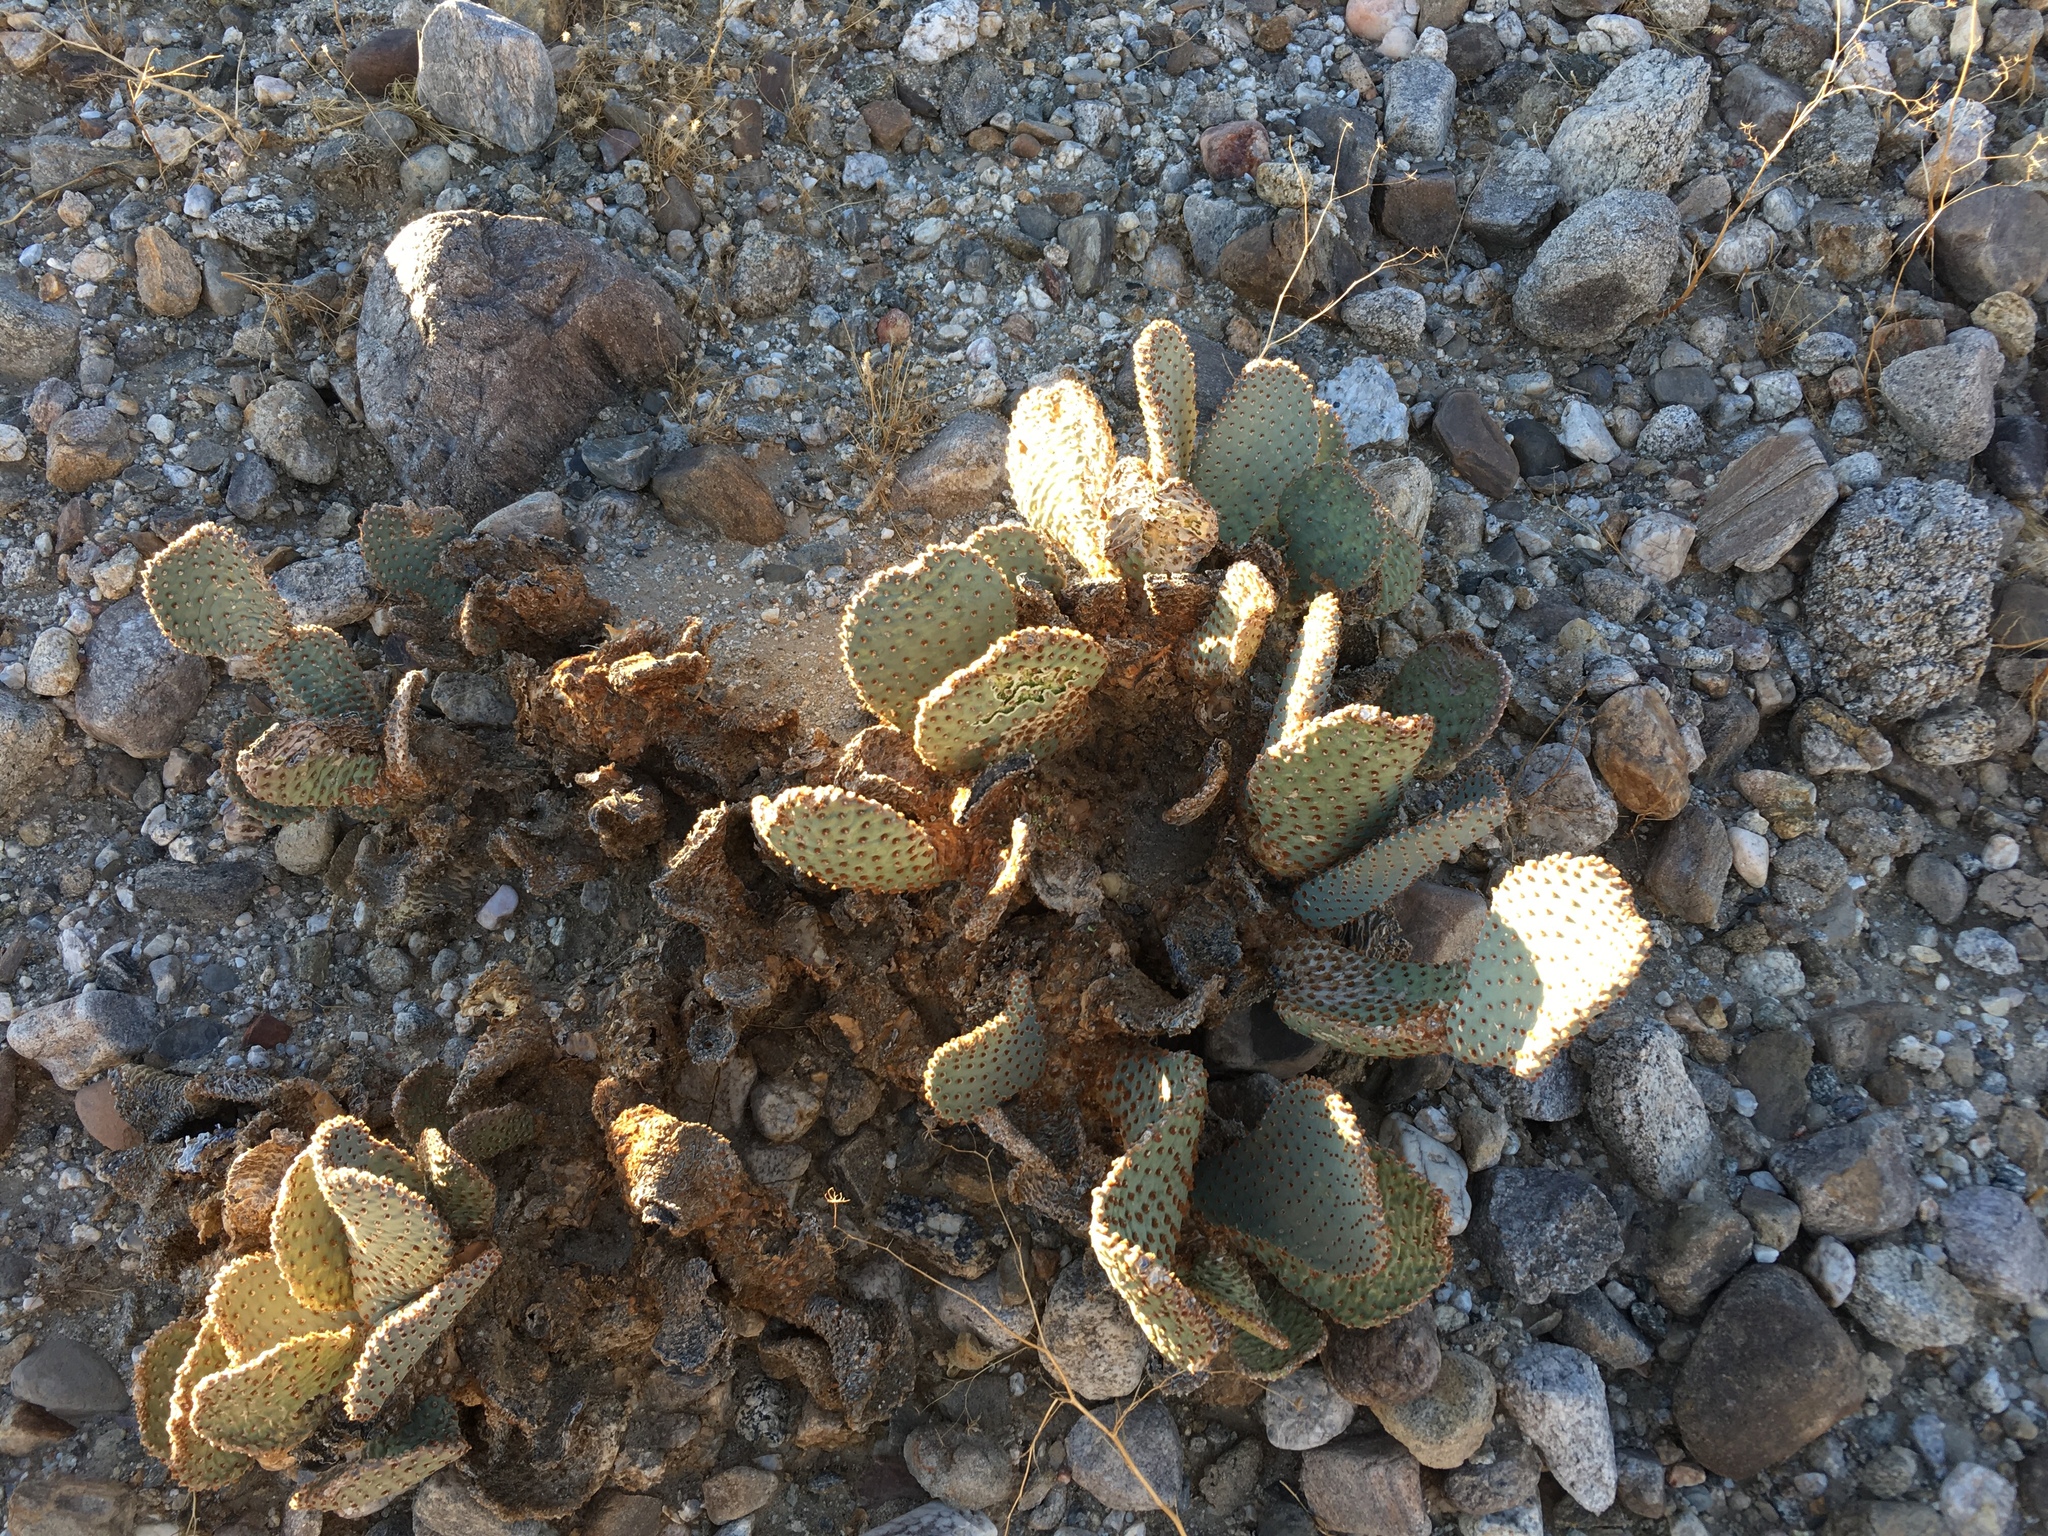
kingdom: Plantae
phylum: Tracheophyta
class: Magnoliopsida
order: Caryophyllales
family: Cactaceae
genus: Opuntia
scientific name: Opuntia basilaris
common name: Beavertail prickly-pear
